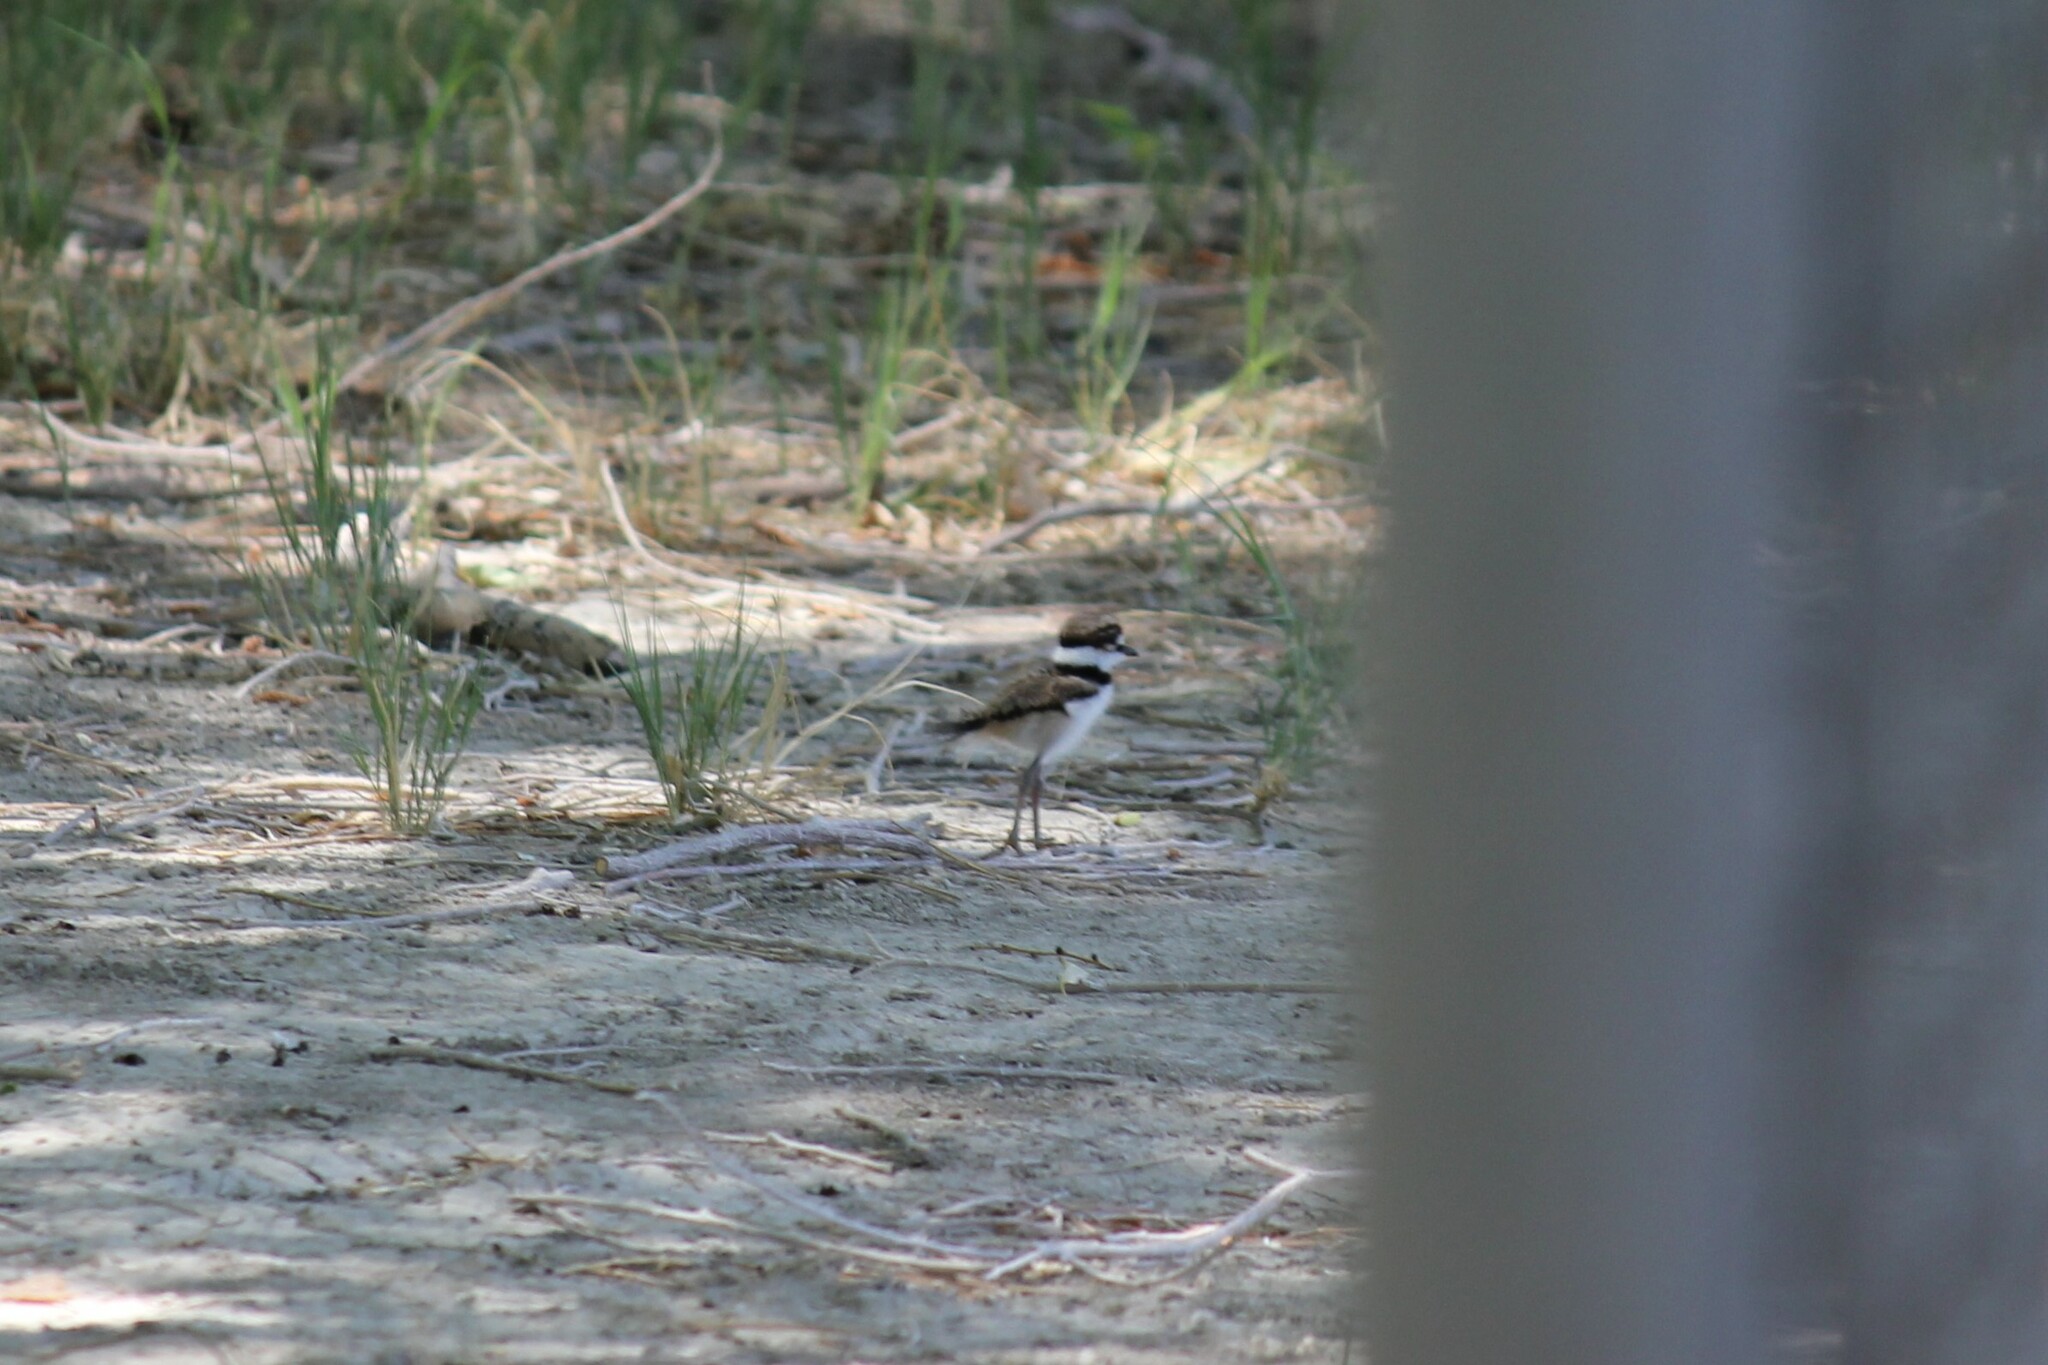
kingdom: Animalia
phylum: Chordata
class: Aves
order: Charadriiformes
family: Charadriidae
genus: Charadrius
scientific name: Charadrius vociferus
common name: Killdeer
